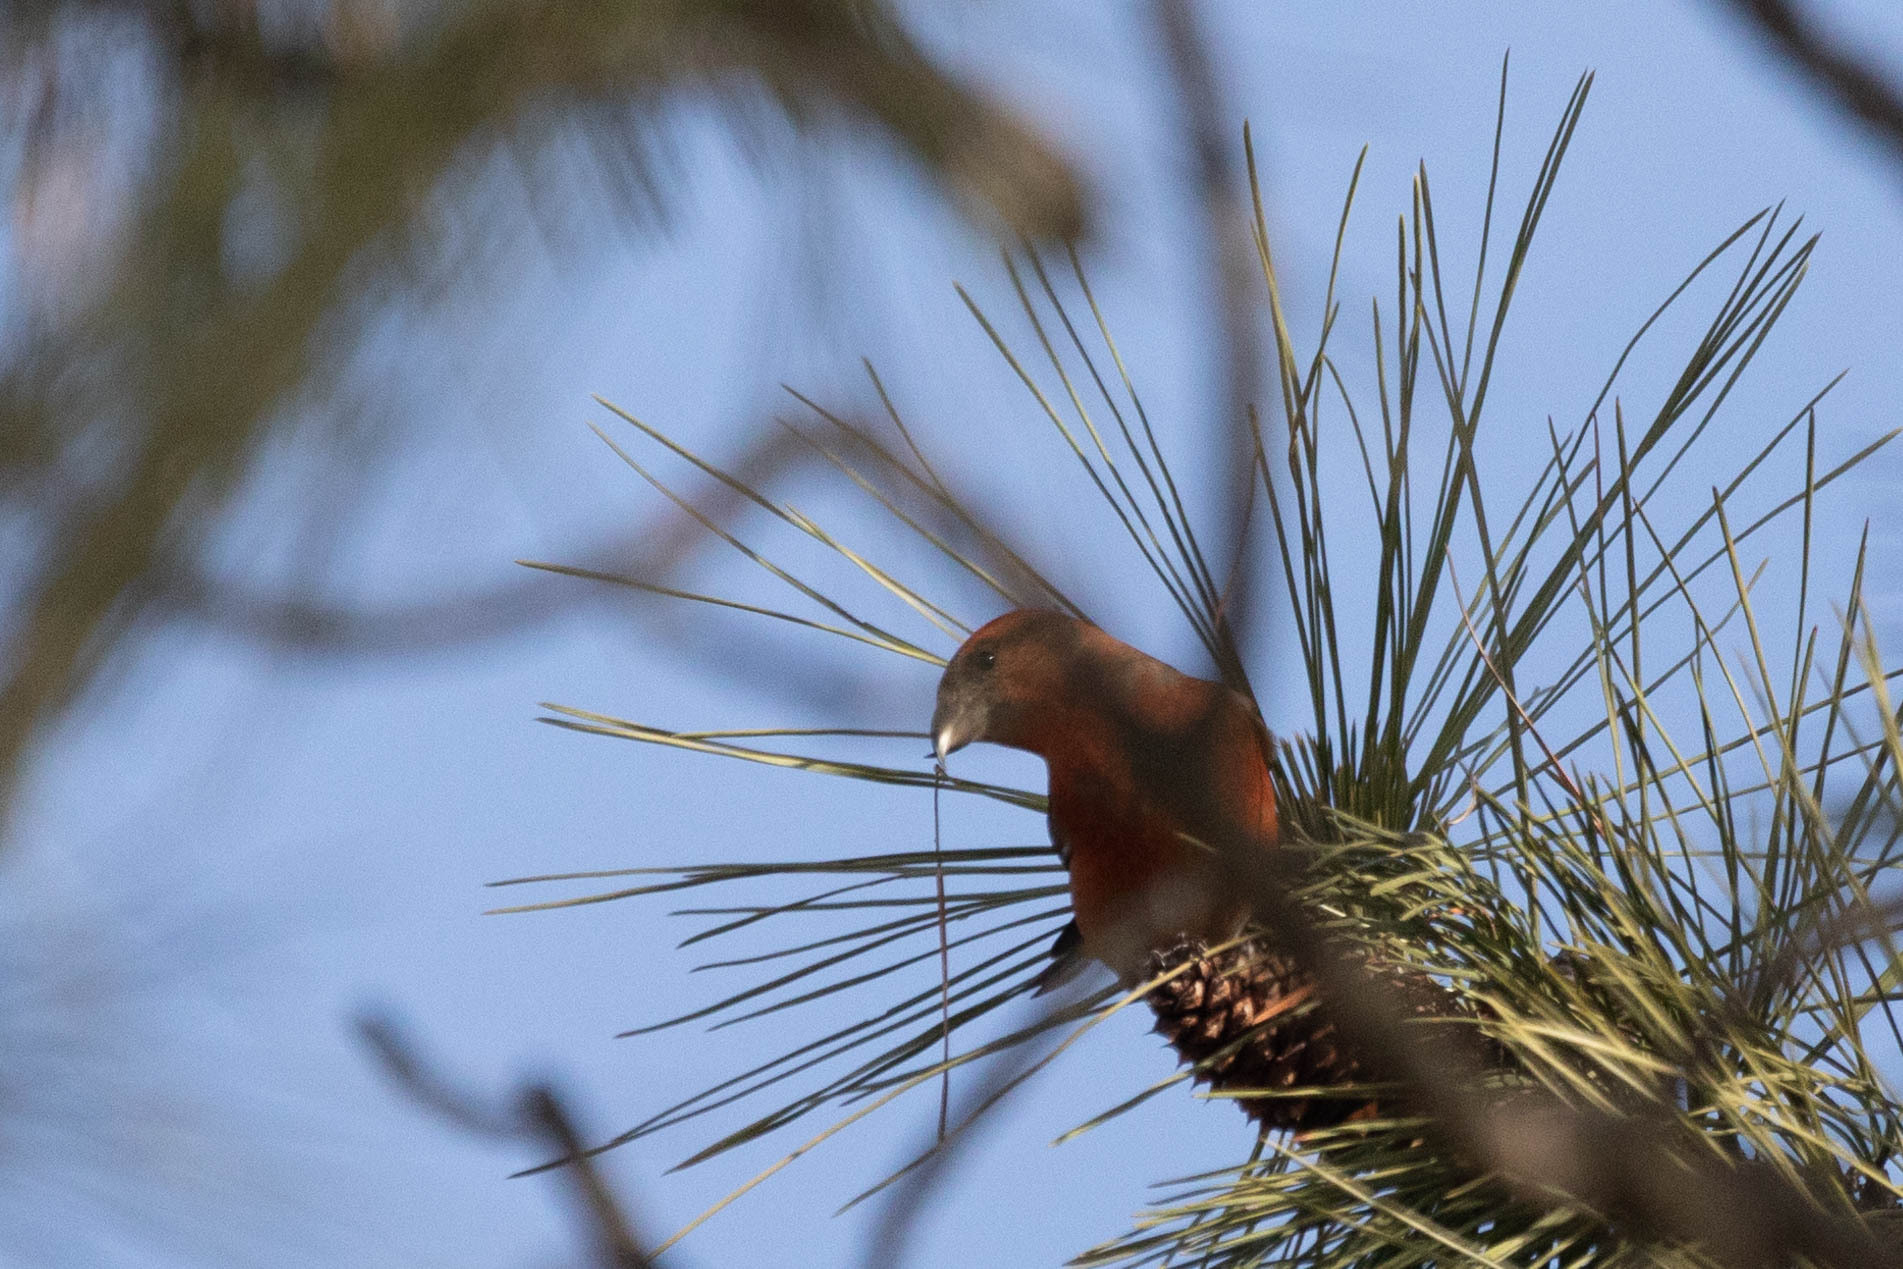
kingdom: Animalia
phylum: Chordata
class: Aves
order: Passeriformes
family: Fringillidae
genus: Loxia
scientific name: Loxia curvirostra
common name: Red crossbill
